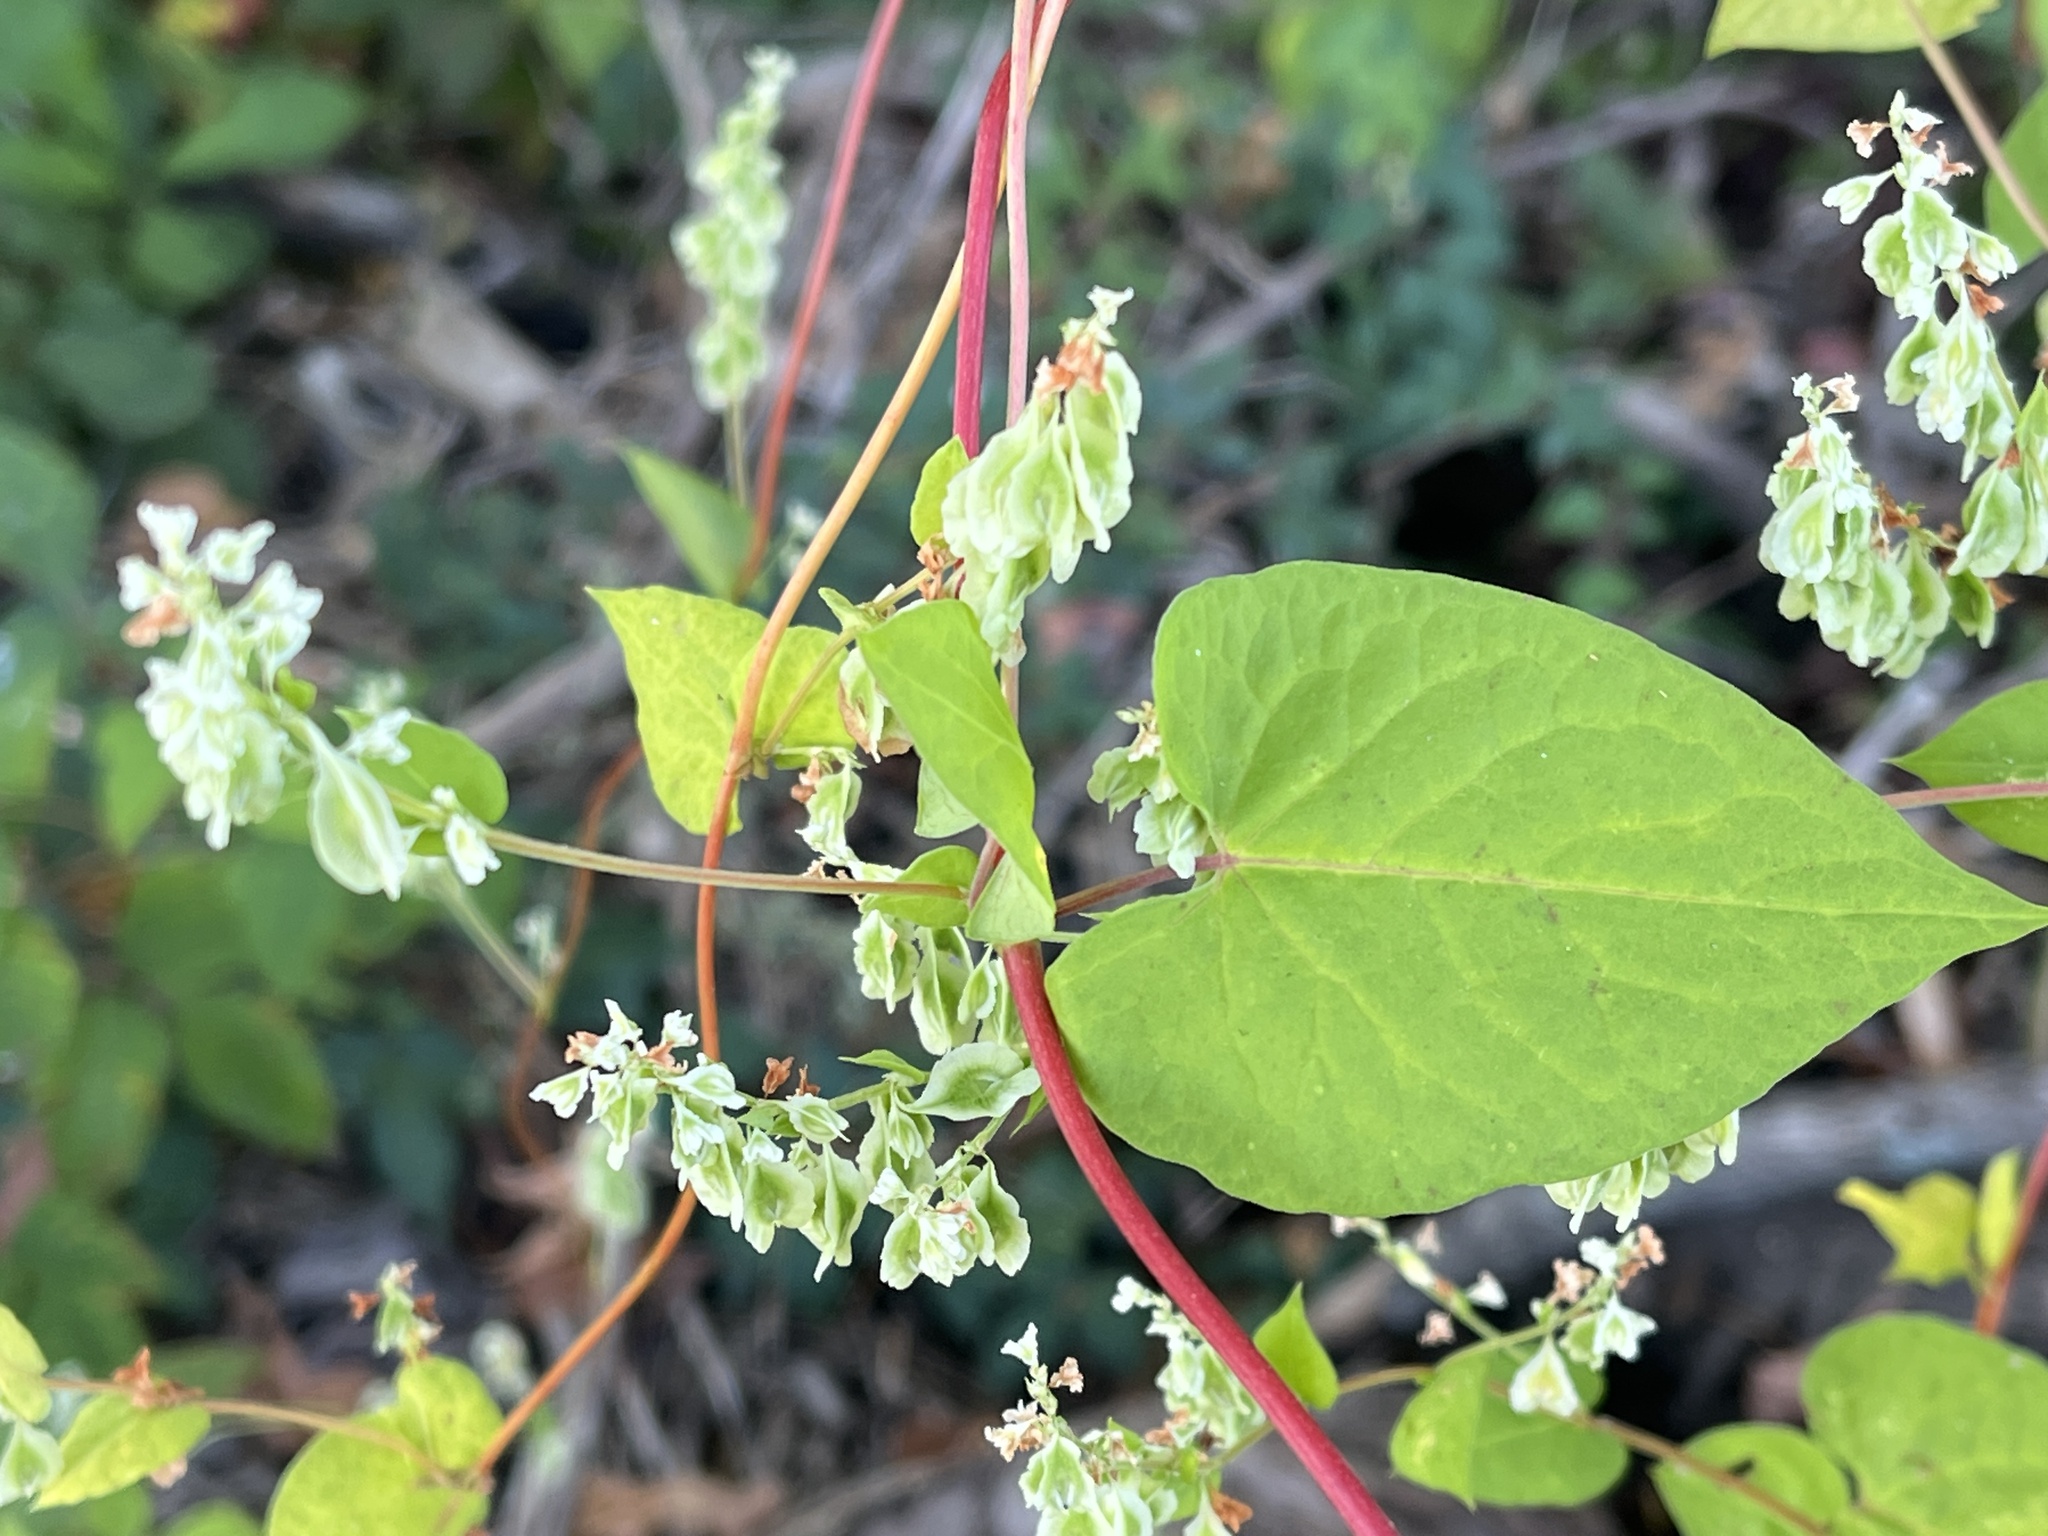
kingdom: Plantae
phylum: Tracheophyta
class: Magnoliopsida
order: Caryophyllales
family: Polygonaceae
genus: Fallopia
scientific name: Fallopia scandens
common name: Climbing false buckwheat
